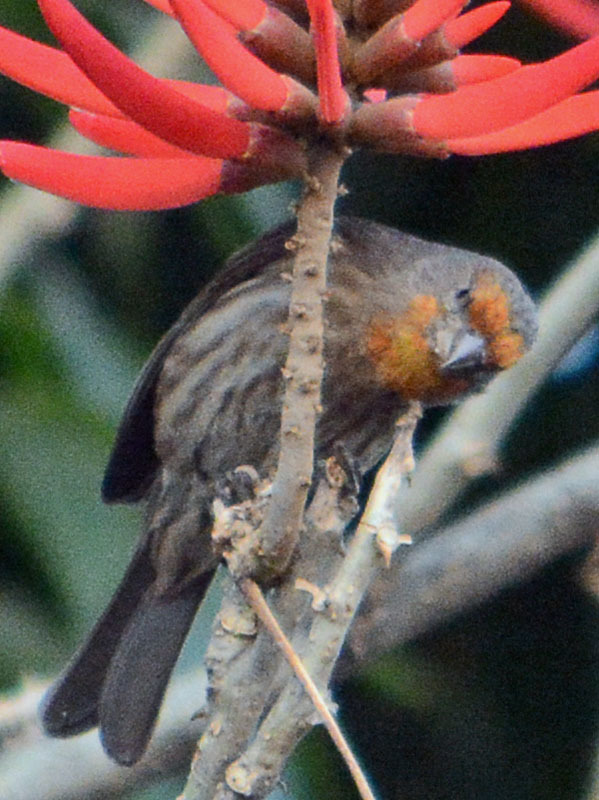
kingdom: Animalia
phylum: Chordata
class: Aves
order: Passeriformes
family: Fringillidae
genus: Haemorhous
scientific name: Haemorhous mexicanus
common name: House finch
